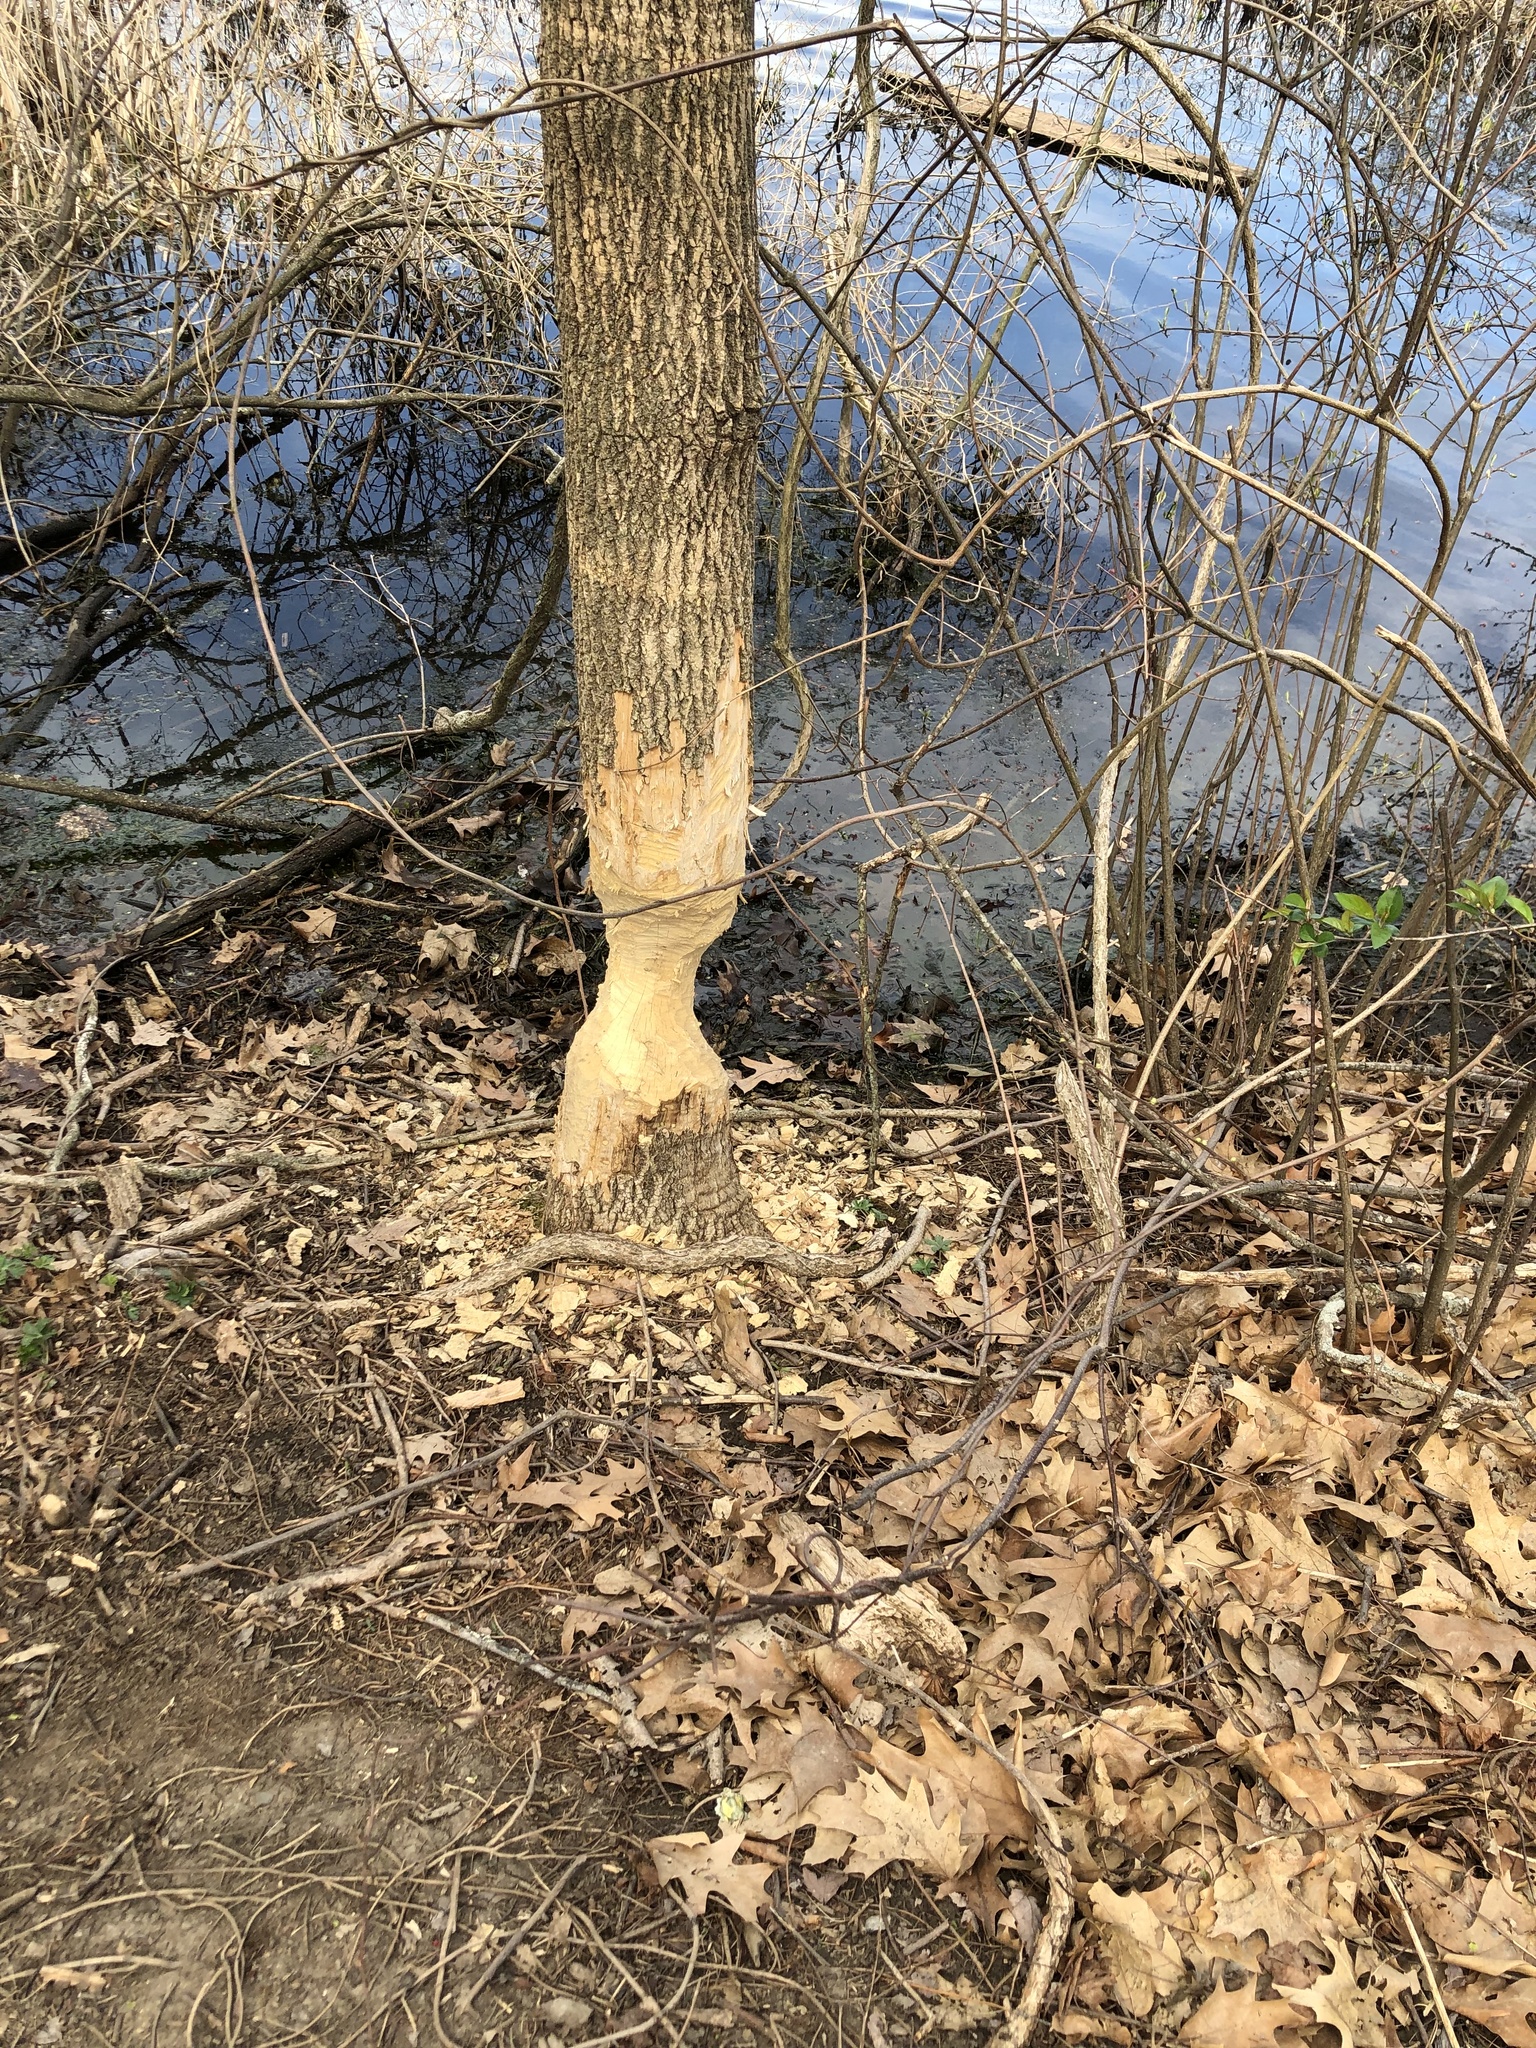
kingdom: Animalia
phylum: Chordata
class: Mammalia
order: Rodentia
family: Castoridae
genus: Castor
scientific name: Castor canadensis
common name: American beaver
